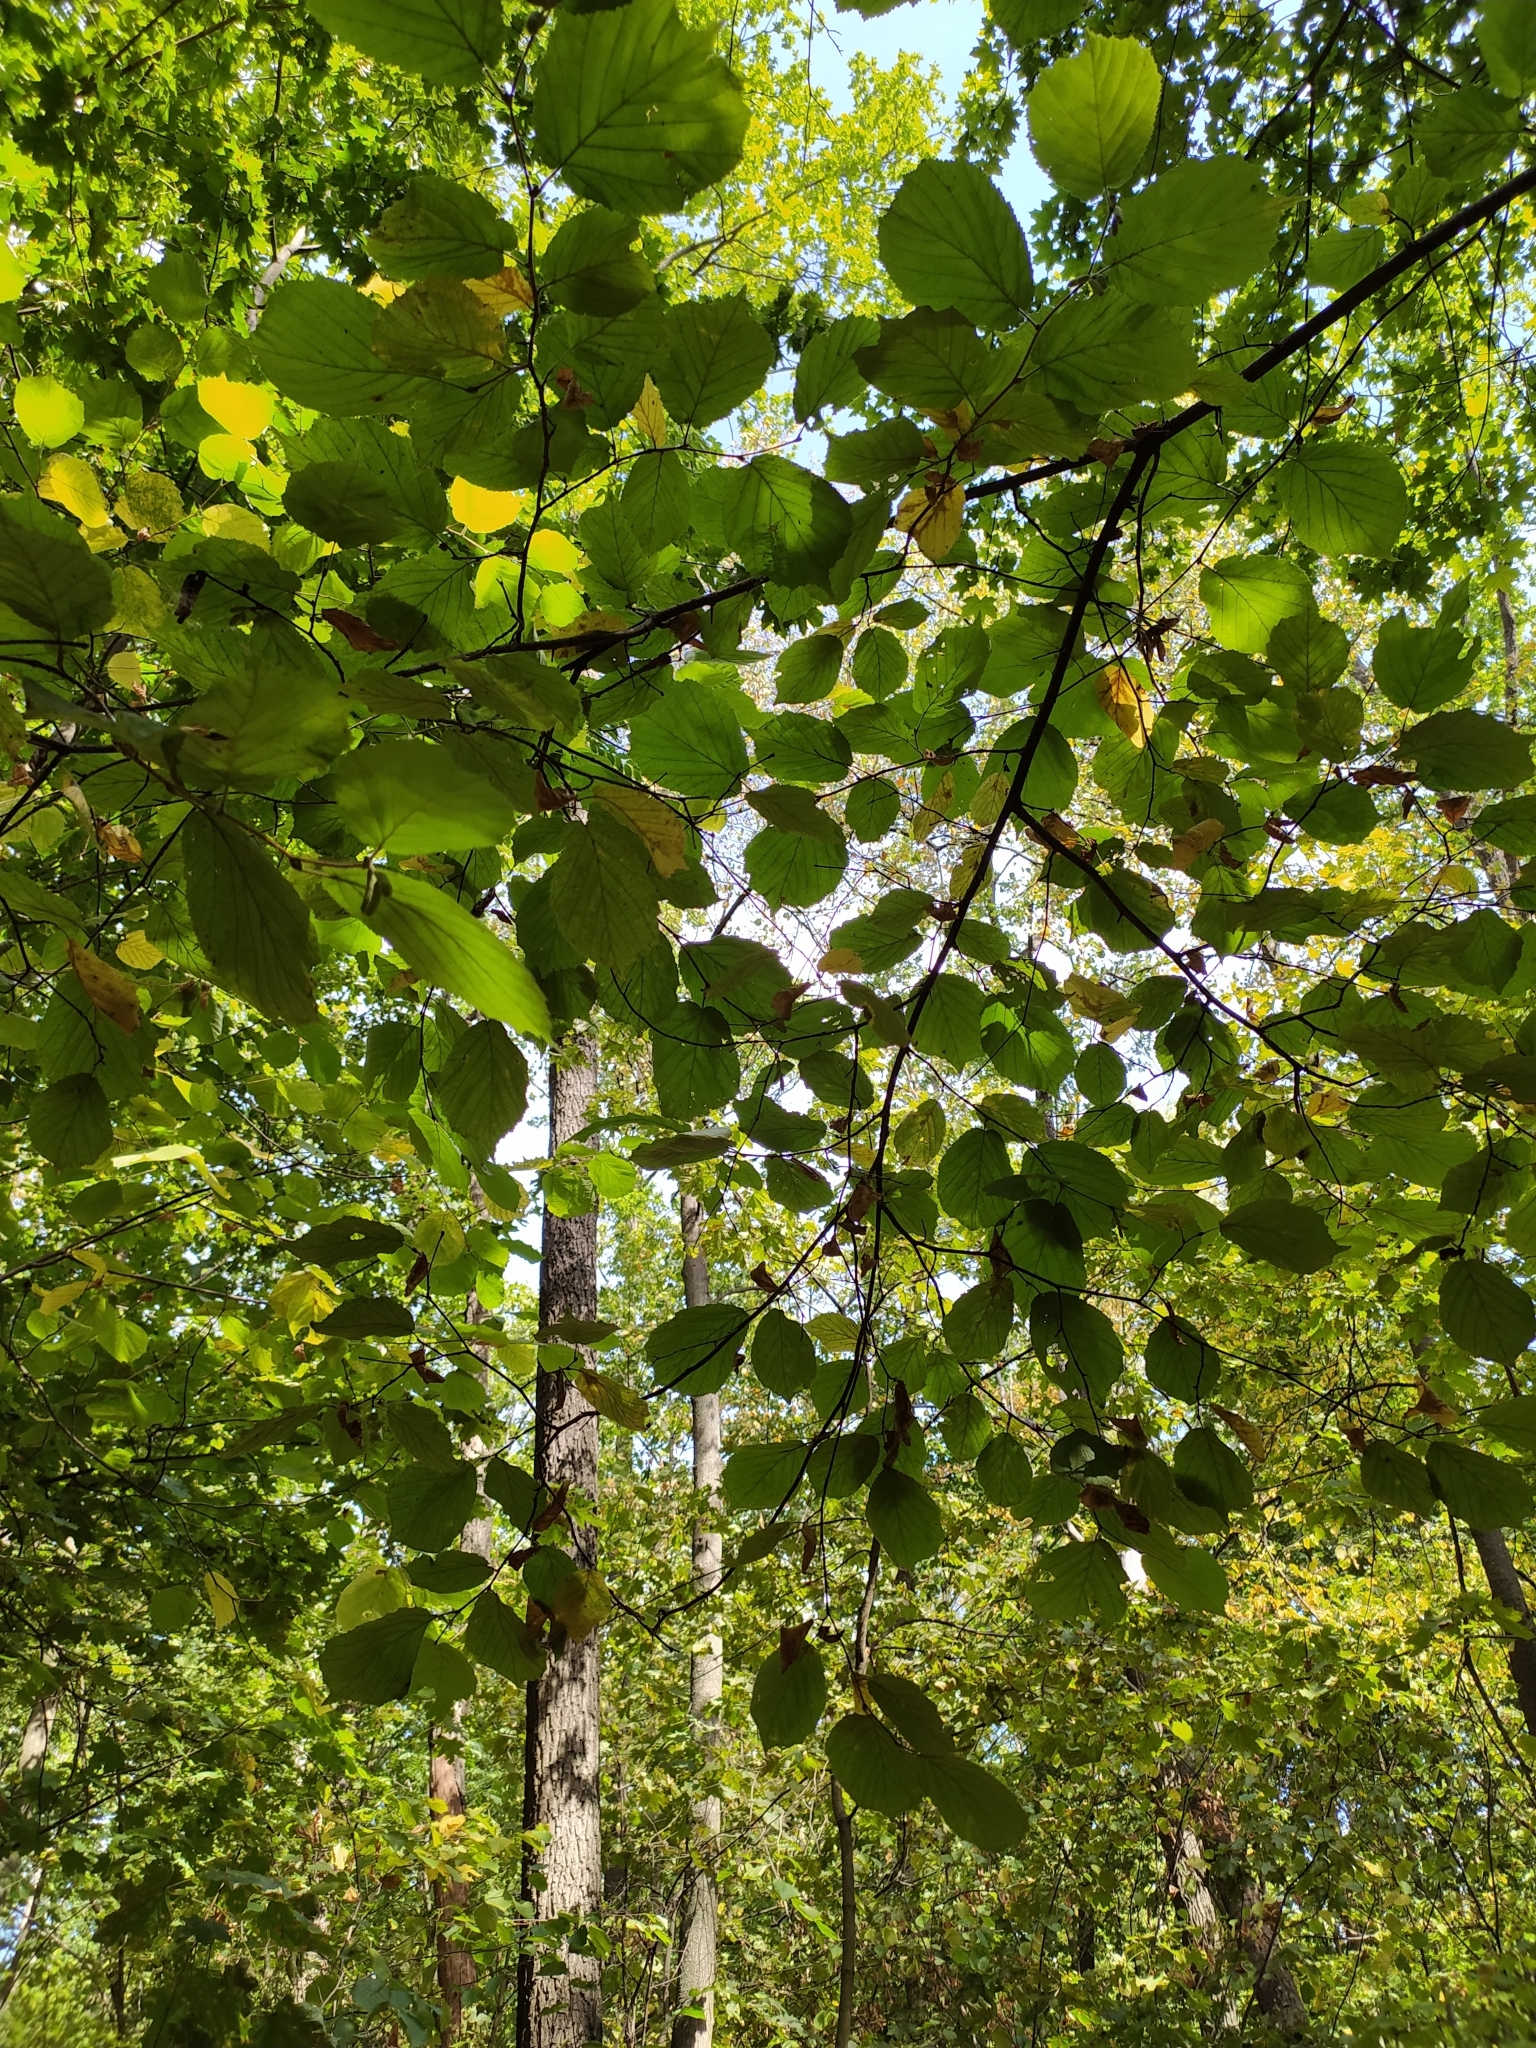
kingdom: Plantae
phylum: Tracheophyta
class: Magnoliopsida
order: Fagales
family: Betulaceae
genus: Corylus
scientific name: Corylus avellana
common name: European hazel
